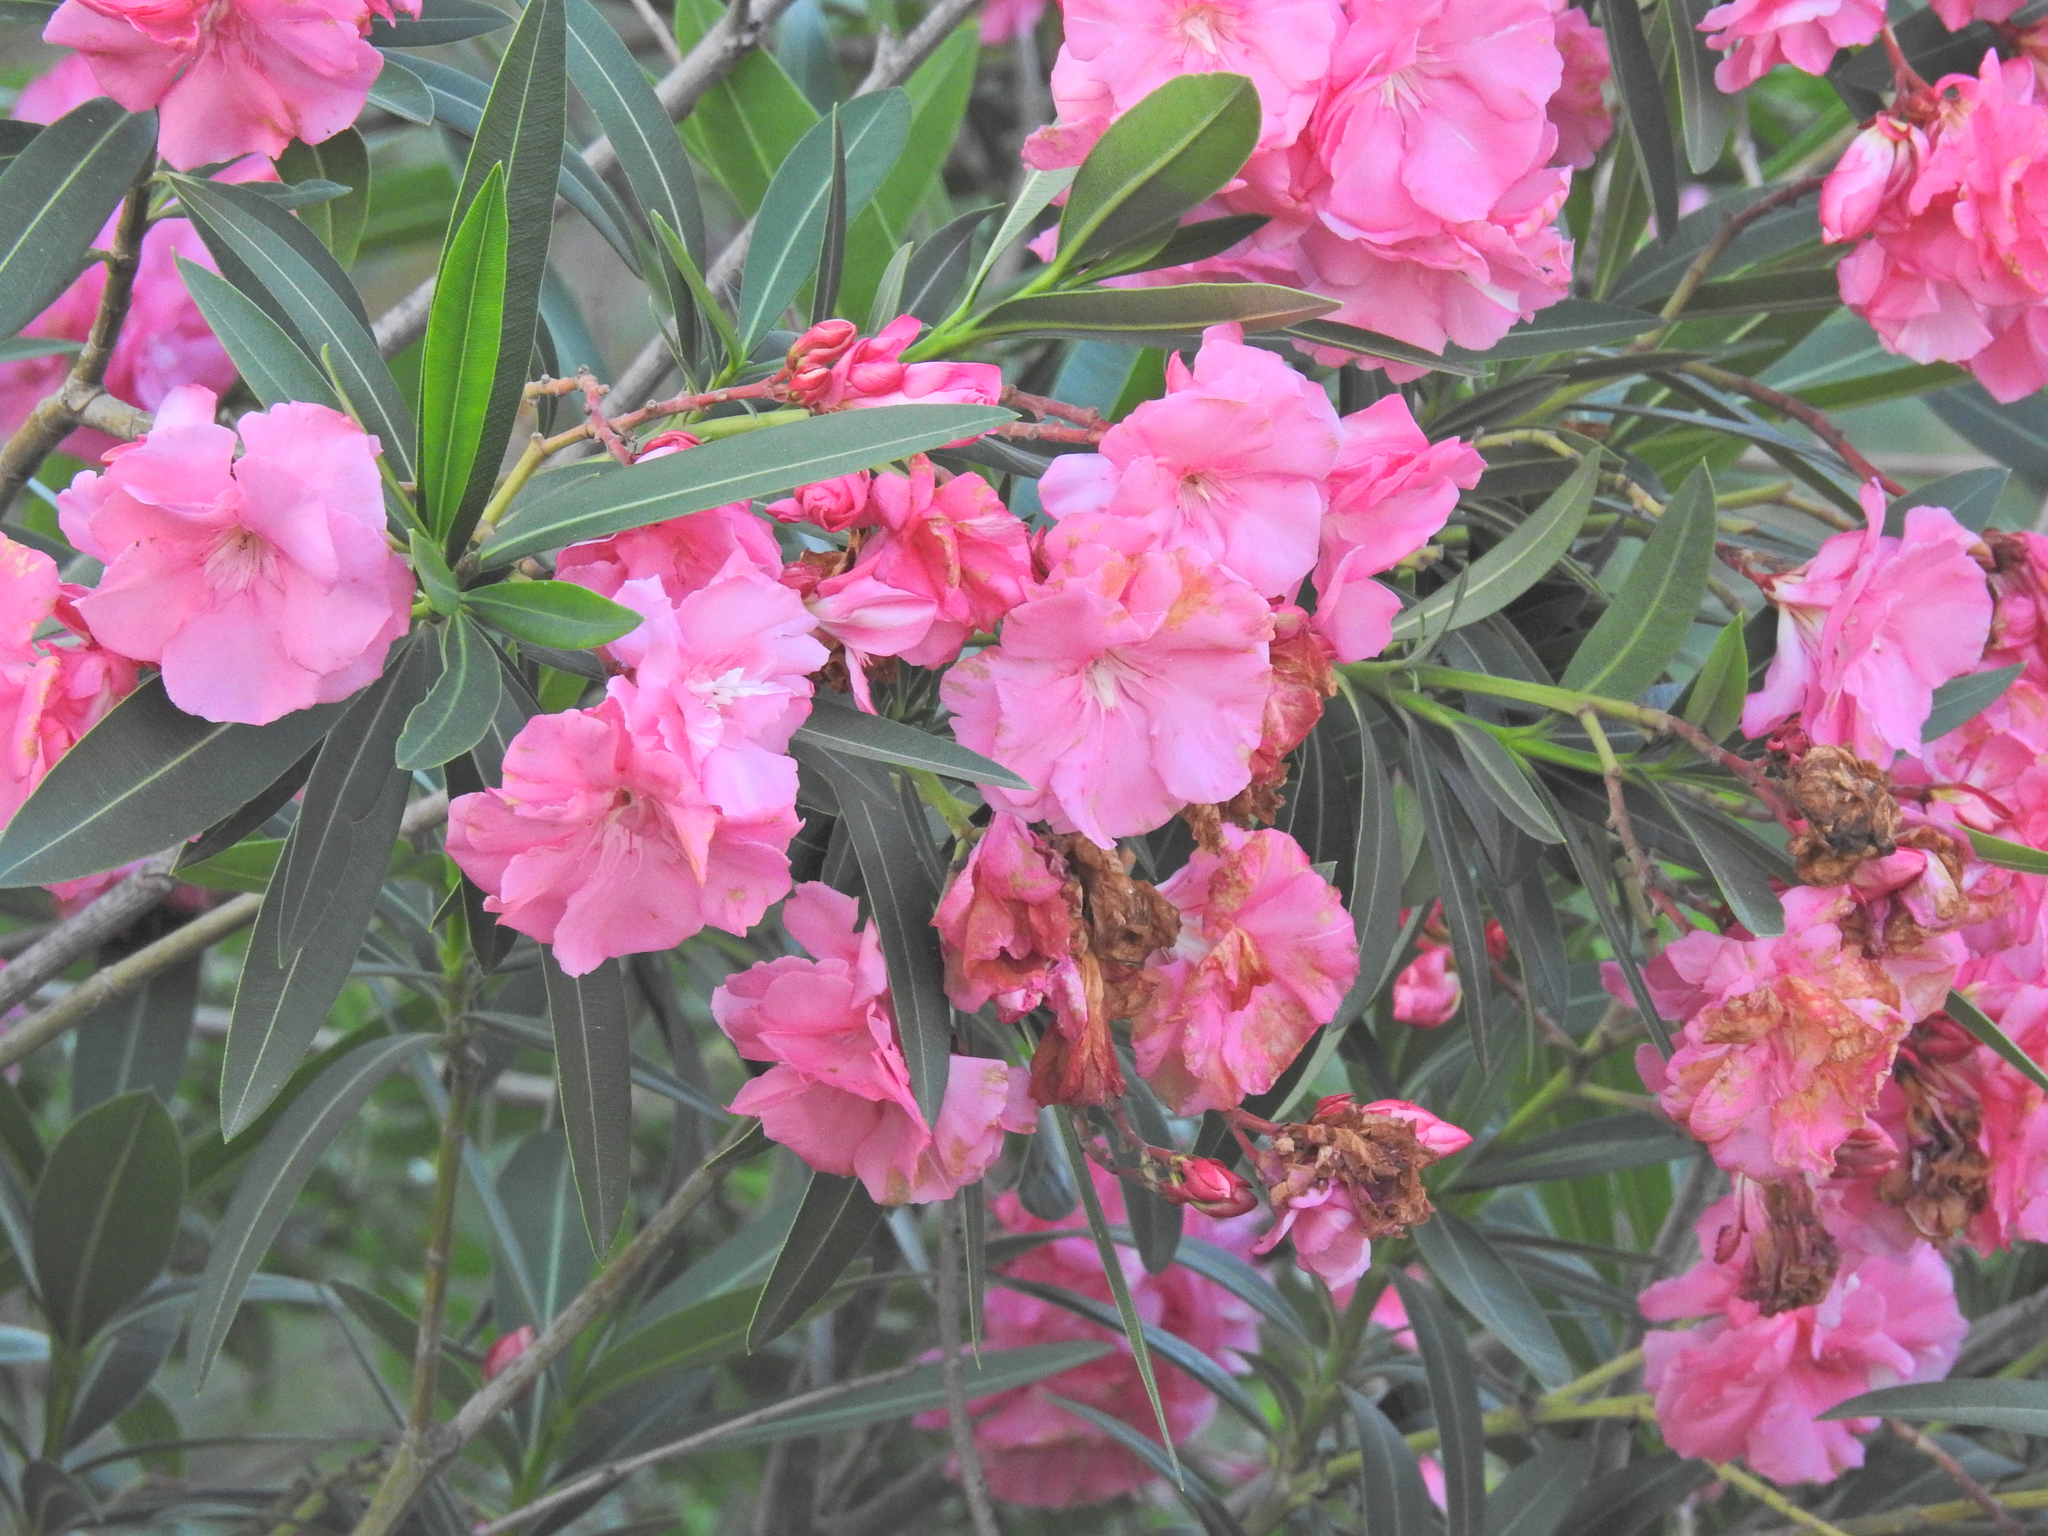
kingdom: Plantae
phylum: Tracheophyta
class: Magnoliopsida
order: Gentianales
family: Apocynaceae
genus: Nerium
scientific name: Nerium oleander
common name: Oleander
